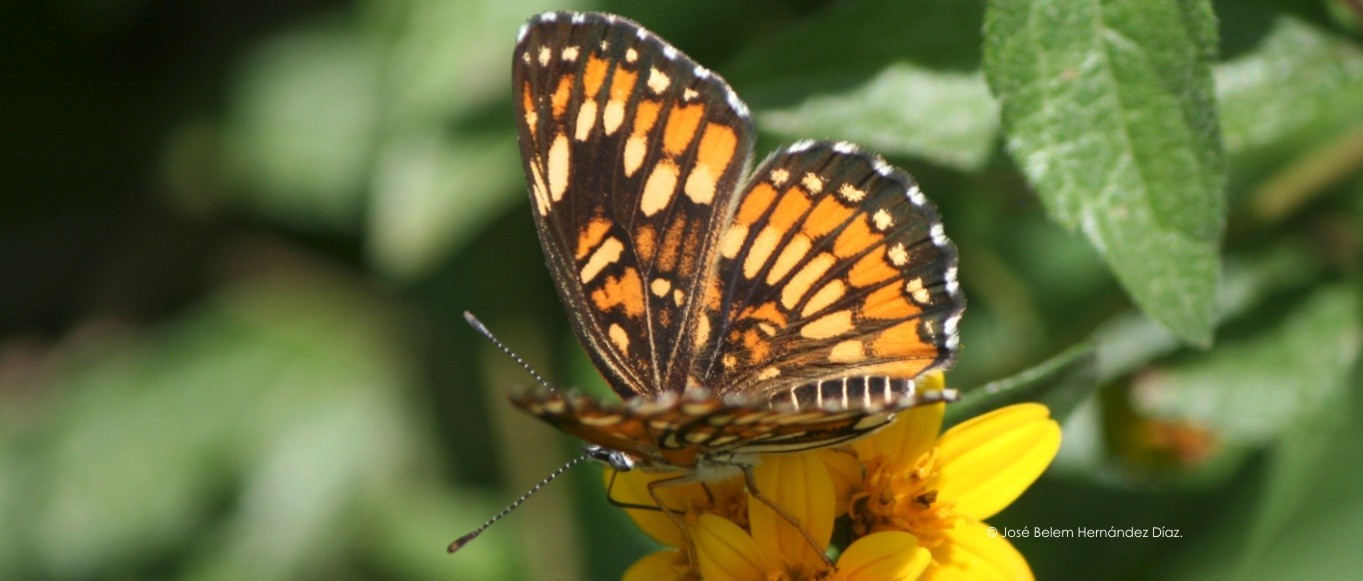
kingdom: Animalia
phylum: Arthropoda
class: Insecta
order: Lepidoptera
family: Nymphalidae
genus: Thessalia
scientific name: Thessalia theona
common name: Nymphalid moth
